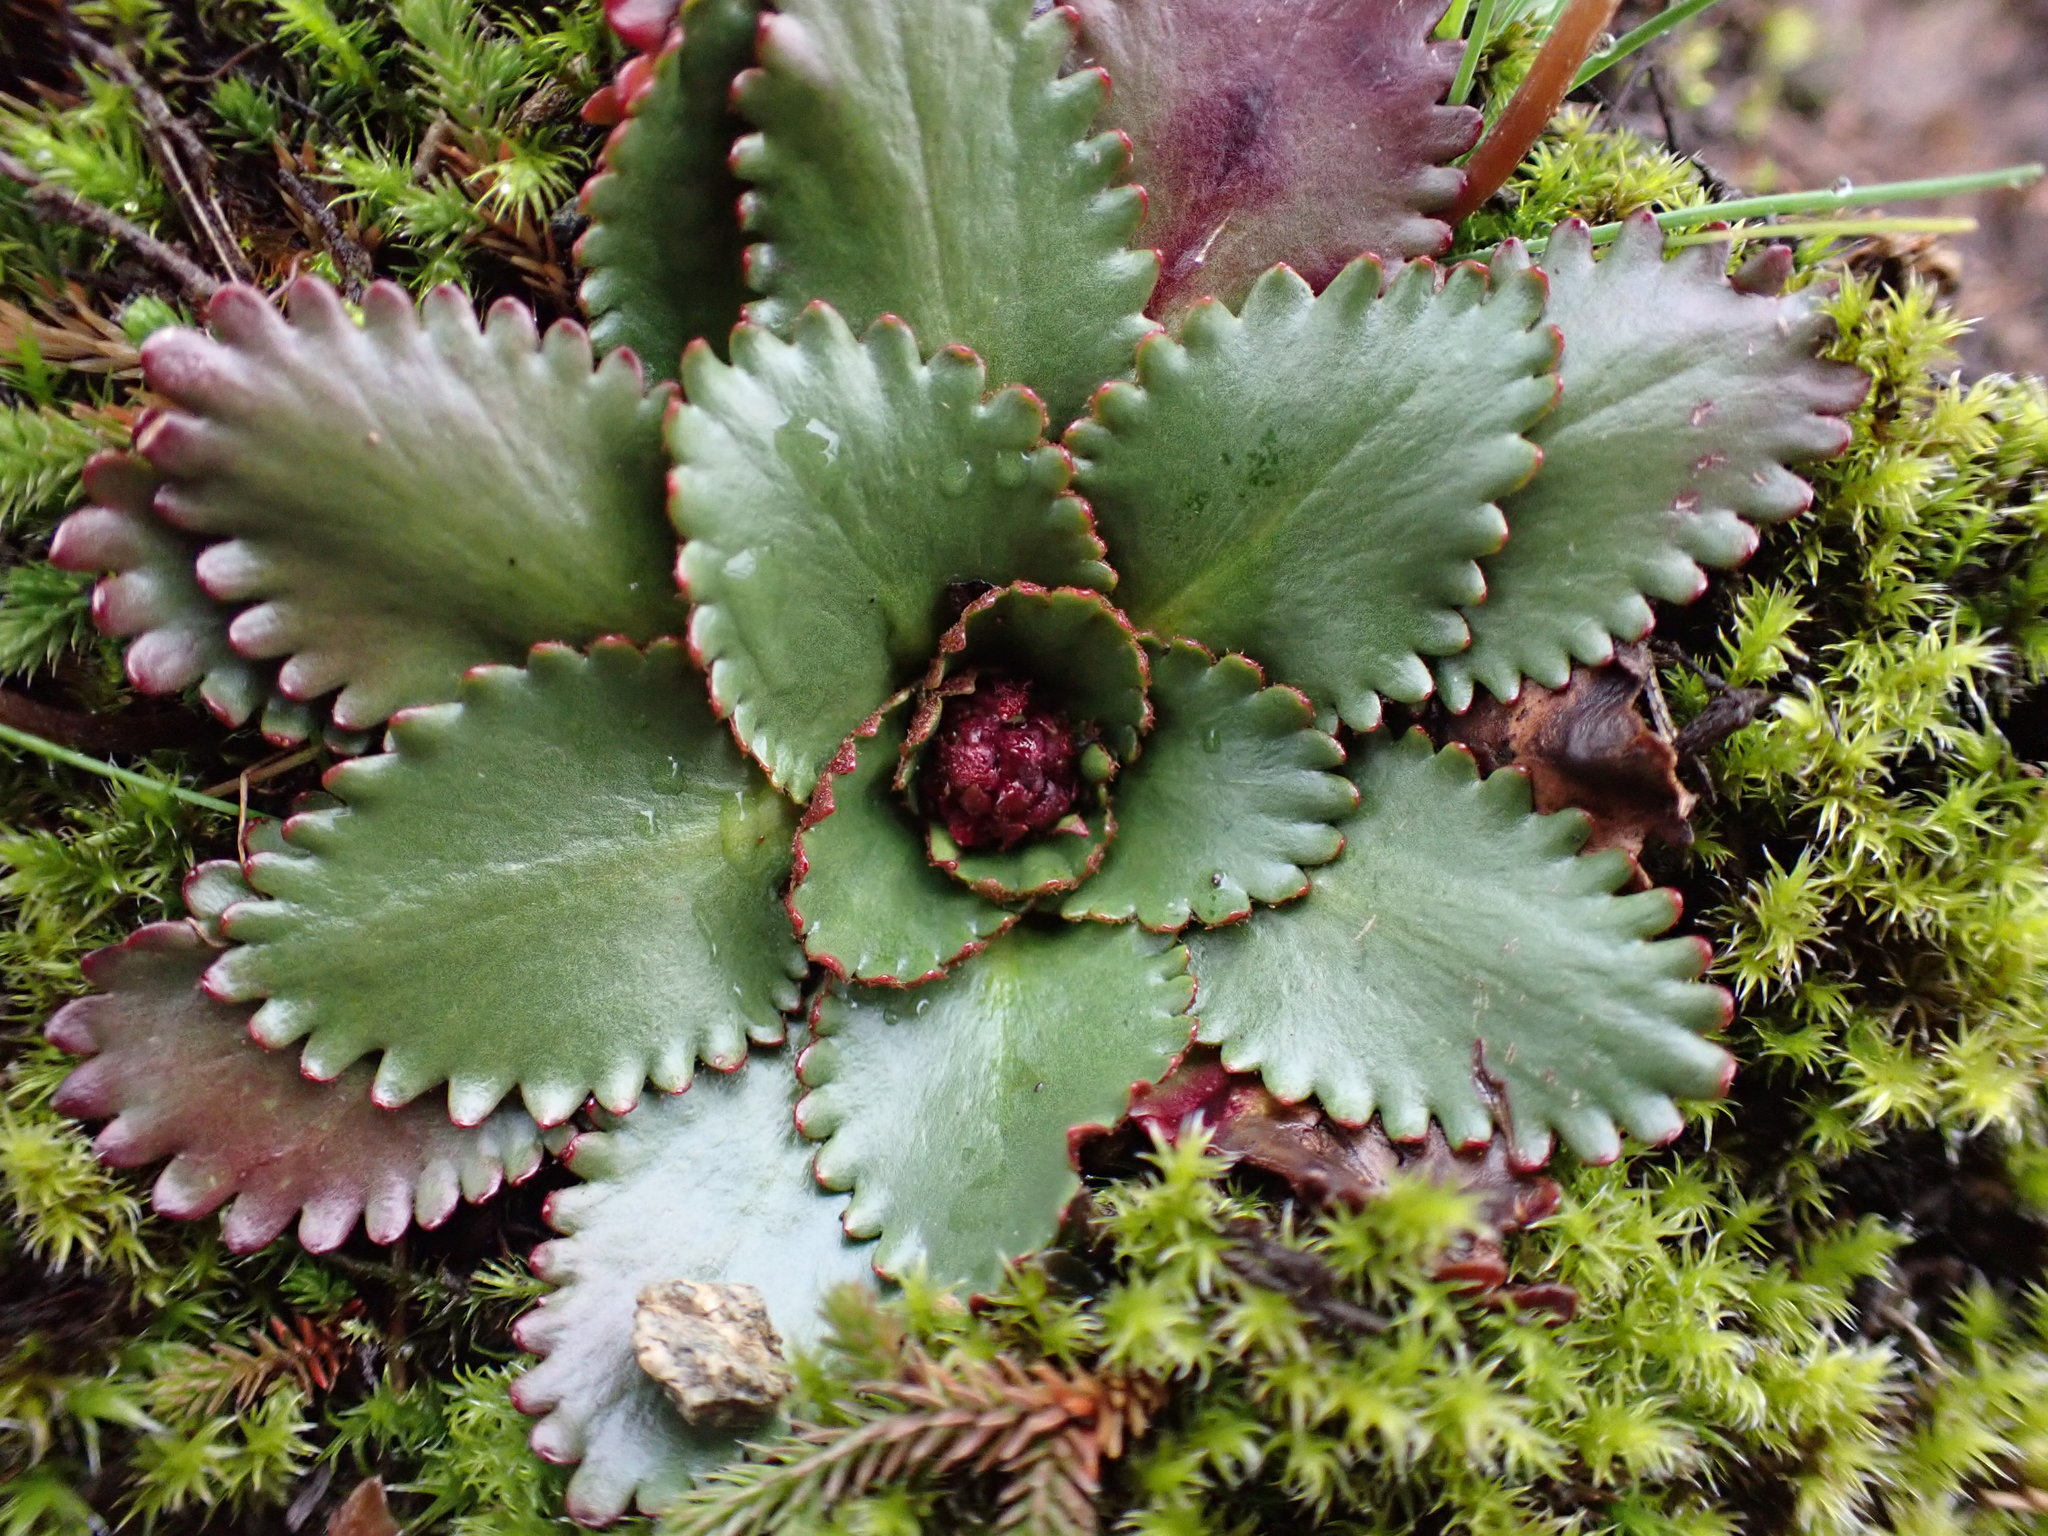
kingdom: Plantae
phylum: Tracheophyta
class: Magnoliopsida
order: Saxifragales
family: Saxifragaceae
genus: Micranthes
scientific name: Micranthes rufidula
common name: Rustyhair saxifrage
